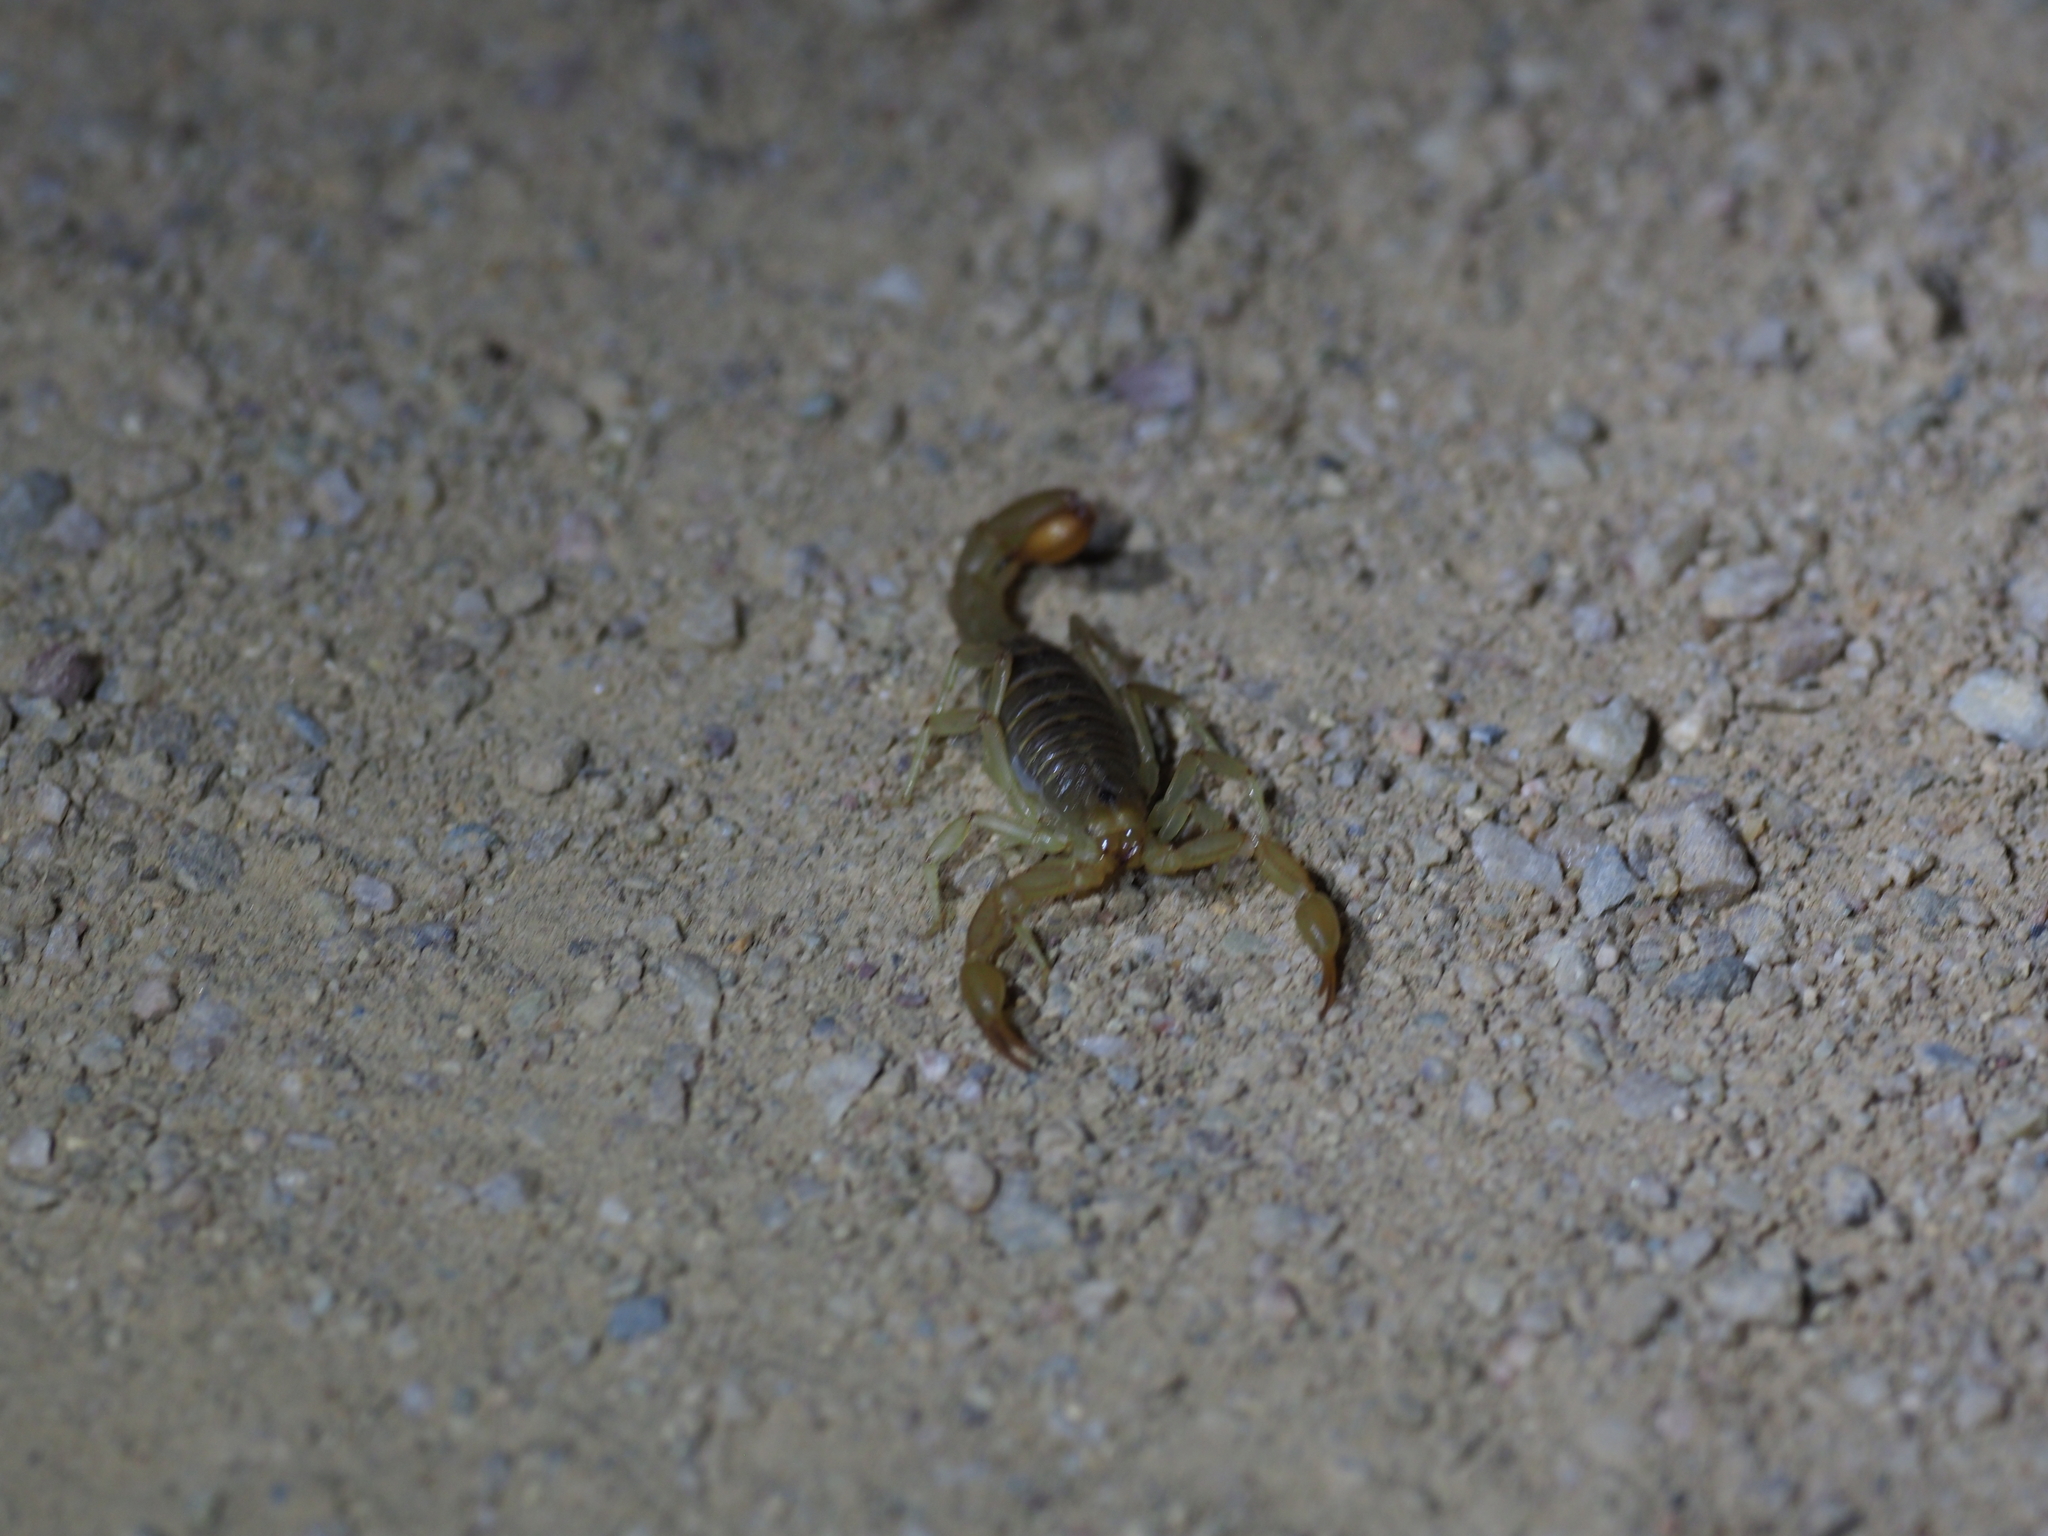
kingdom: Animalia
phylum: Arthropoda
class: Arachnida
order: Scorpiones
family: Vaejovidae
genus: Paravaejovis
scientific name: Paravaejovis spinigerus
